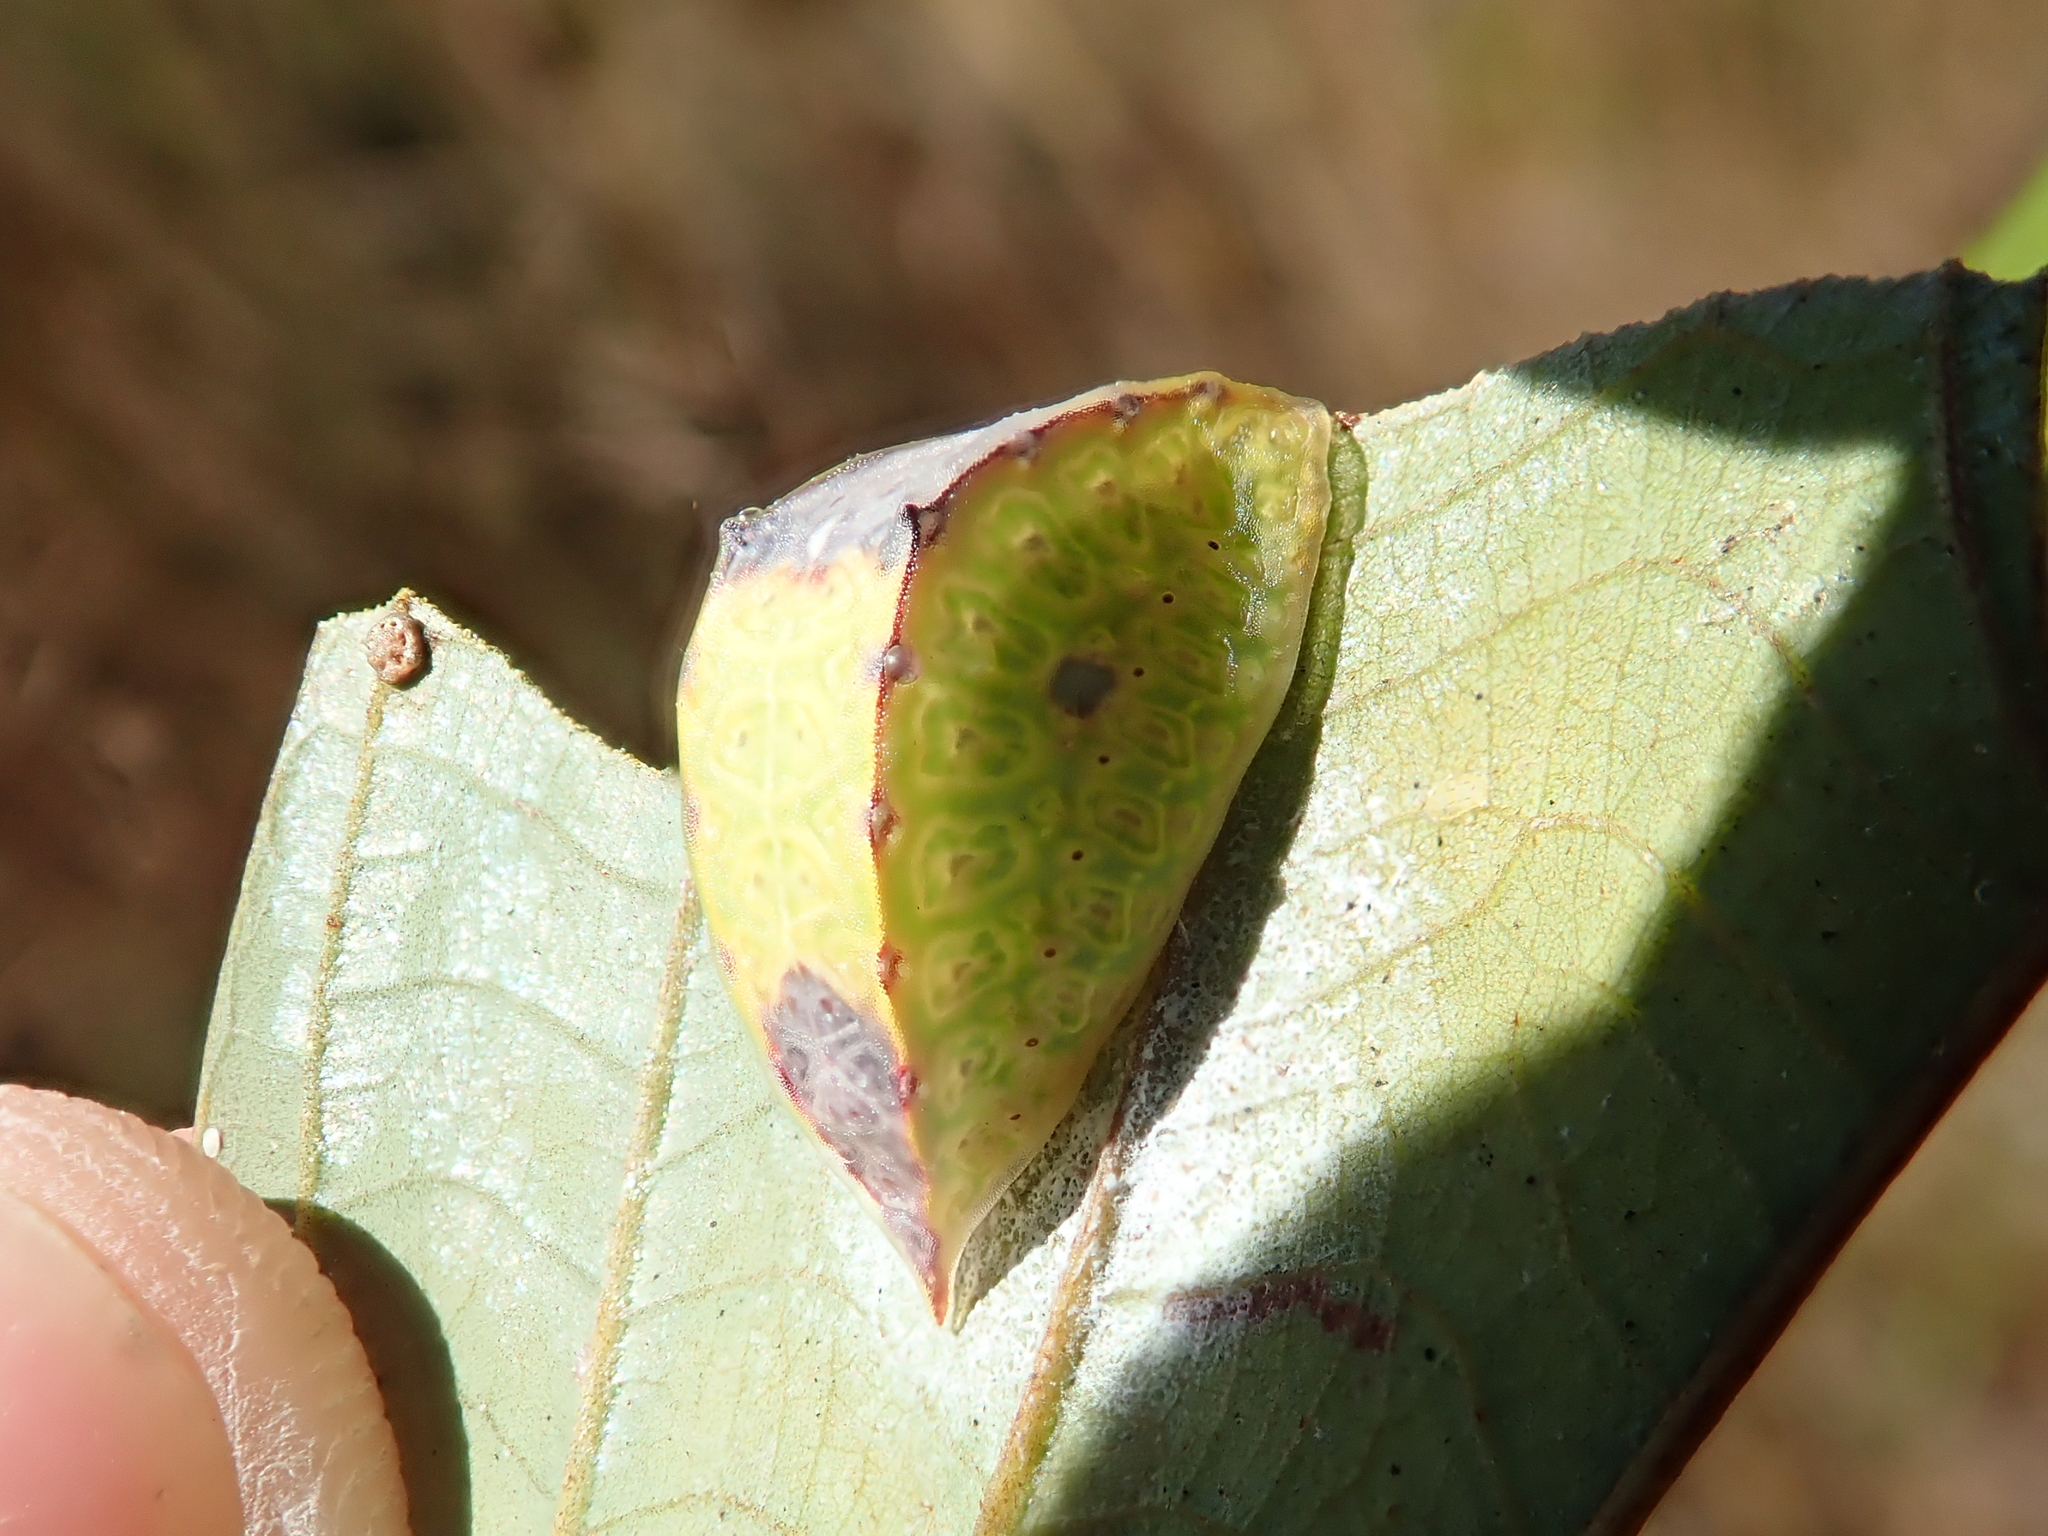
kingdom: Animalia
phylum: Arthropoda
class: Insecta
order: Lepidoptera
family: Limacodidae
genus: Semyra
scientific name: Semyra
